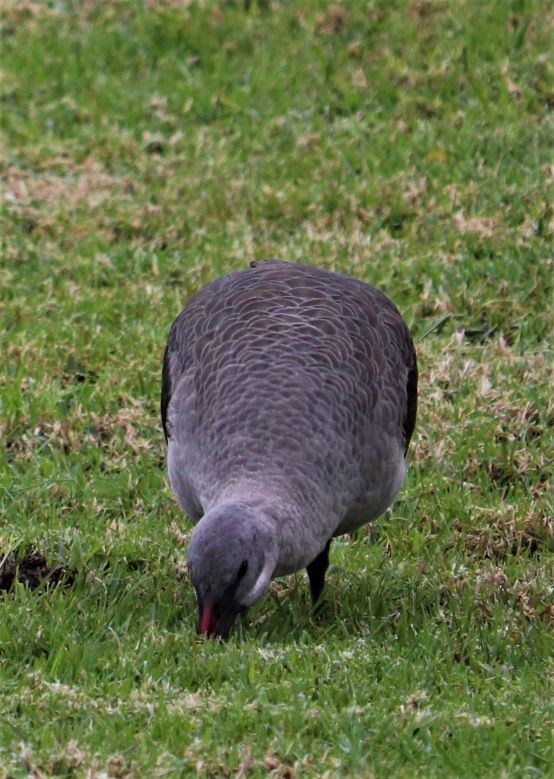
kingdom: Animalia
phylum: Chordata
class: Aves
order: Pelecaniformes
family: Threskiornithidae
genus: Bostrychia
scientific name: Bostrychia hagedash
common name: Hadada ibis
